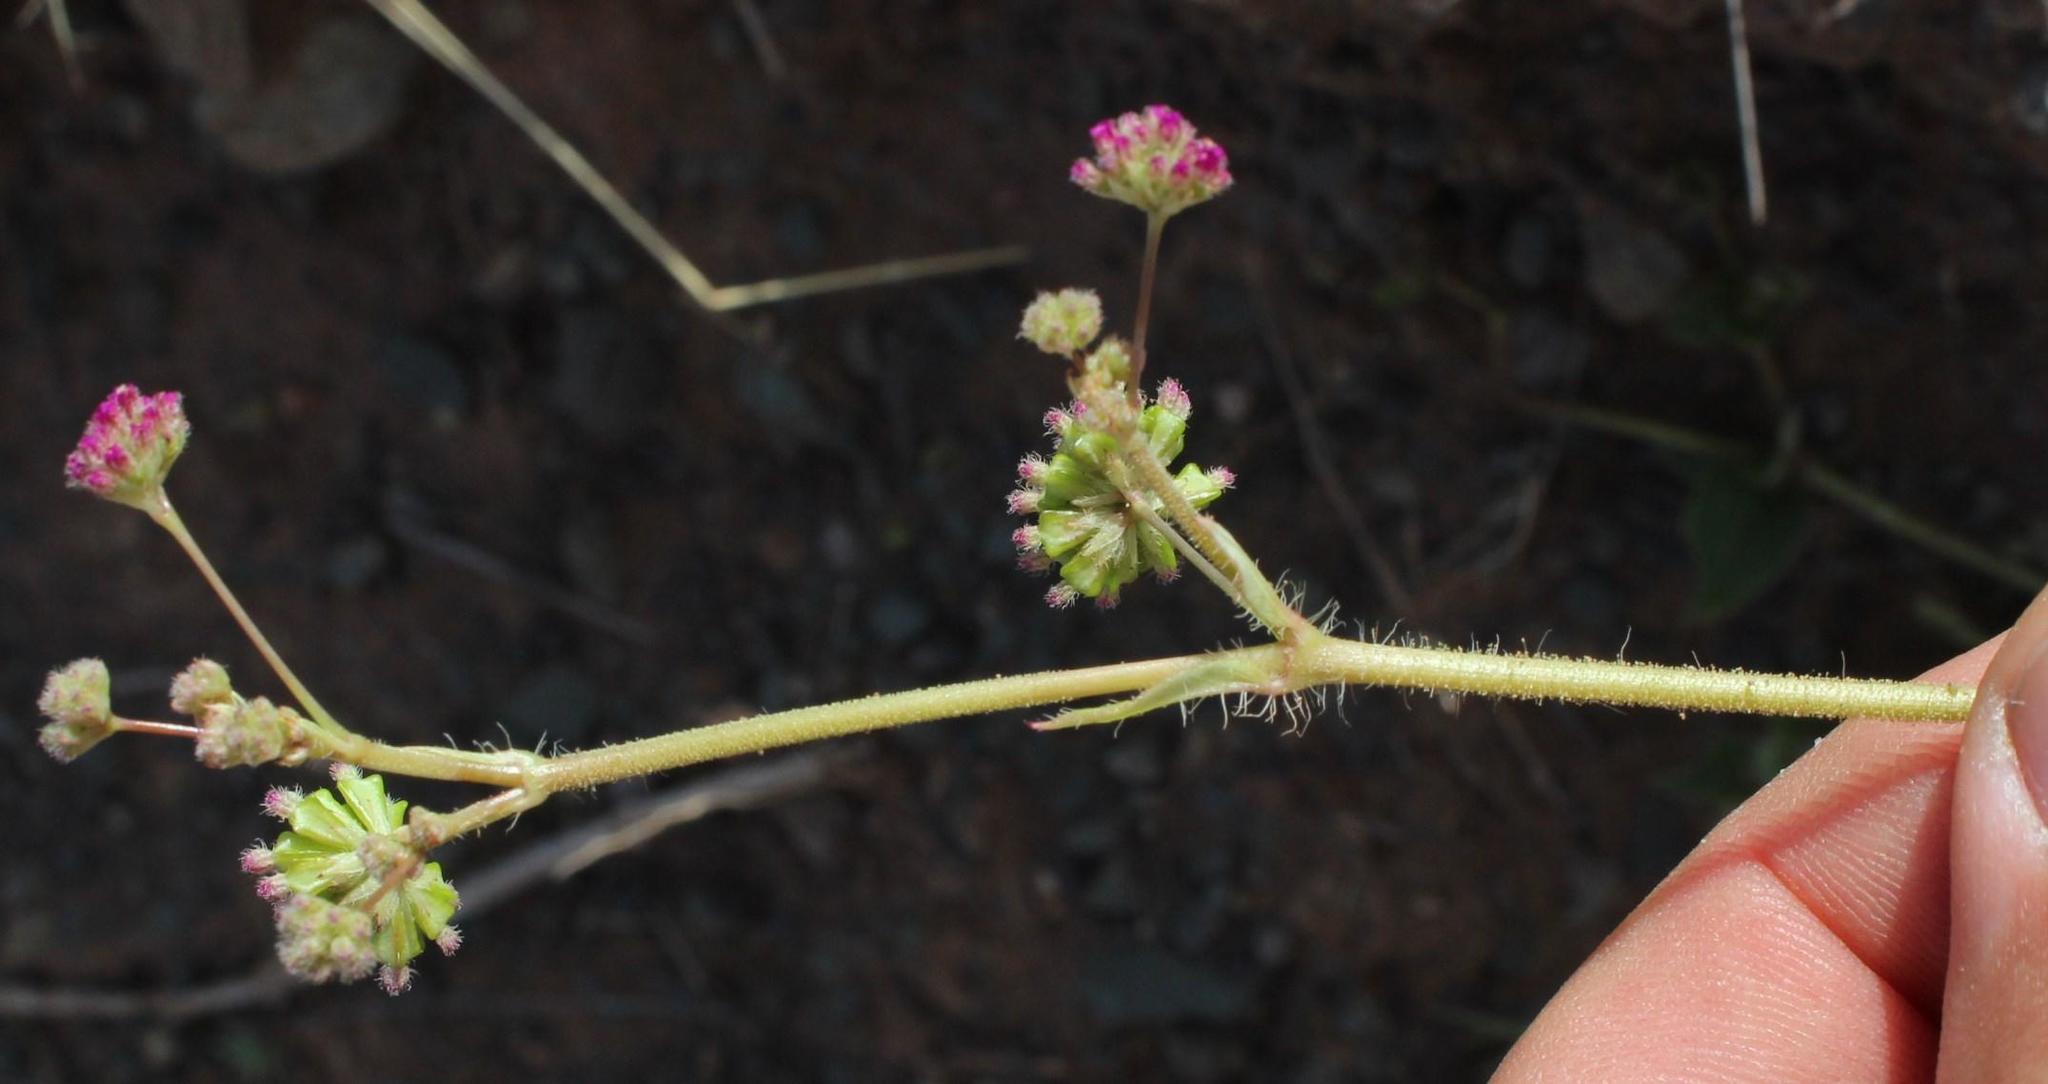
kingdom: Plantae
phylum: Tracheophyta
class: Magnoliopsida
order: Caryophyllales
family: Nyctaginaceae
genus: Boerhavia
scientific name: Boerhavia cordobensis
